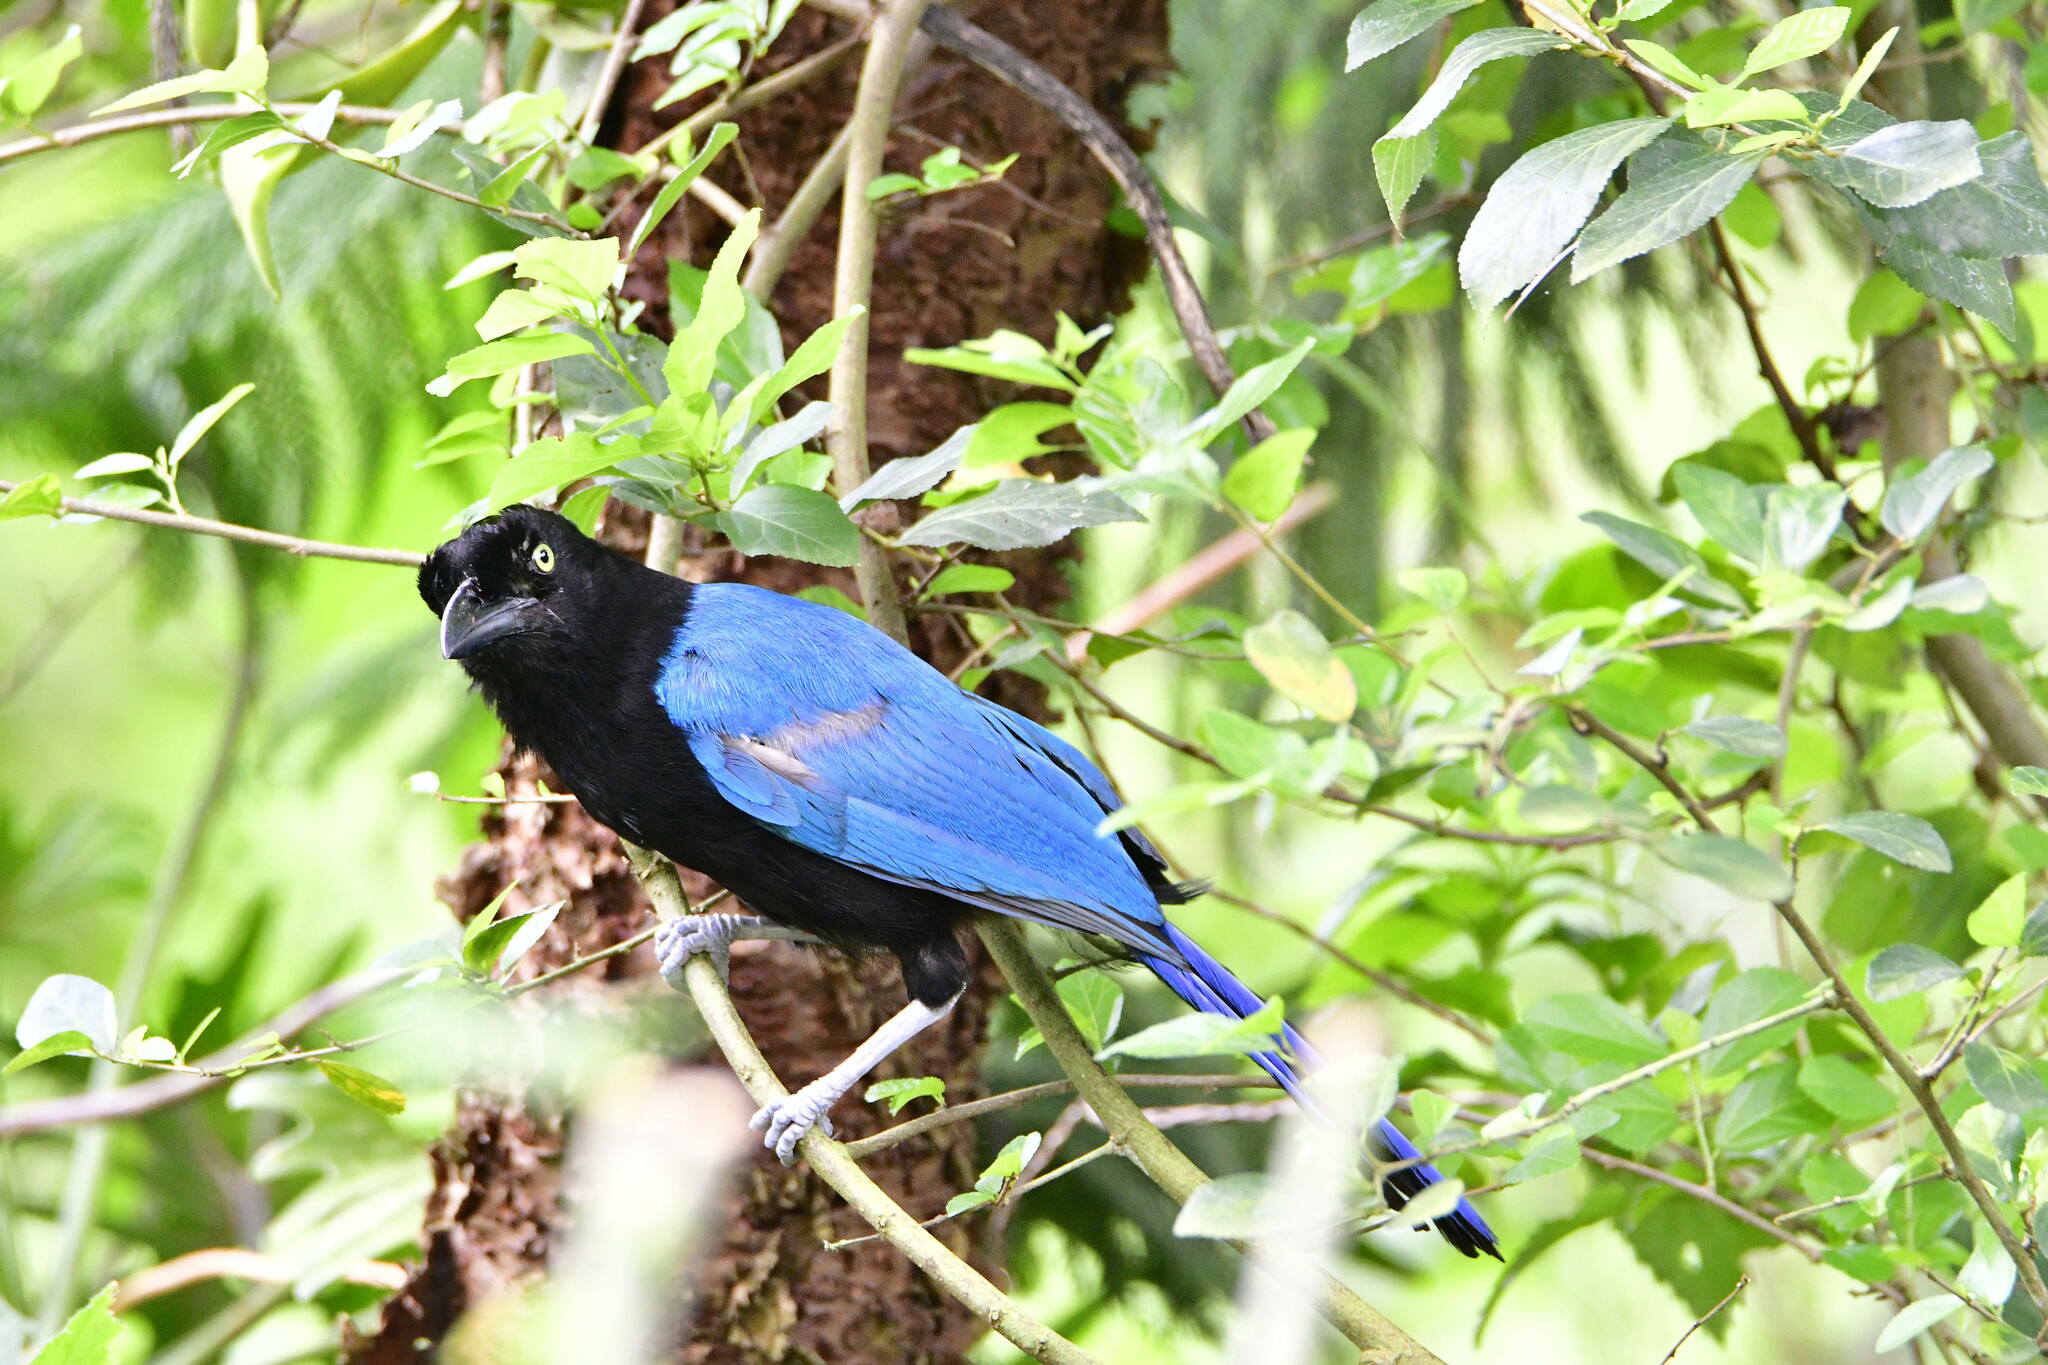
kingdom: Animalia
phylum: Chordata
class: Aves
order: Passeriformes
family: Corvidae
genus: Cyanocorax
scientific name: Cyanocorax sanblasianus
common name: San blas jay
